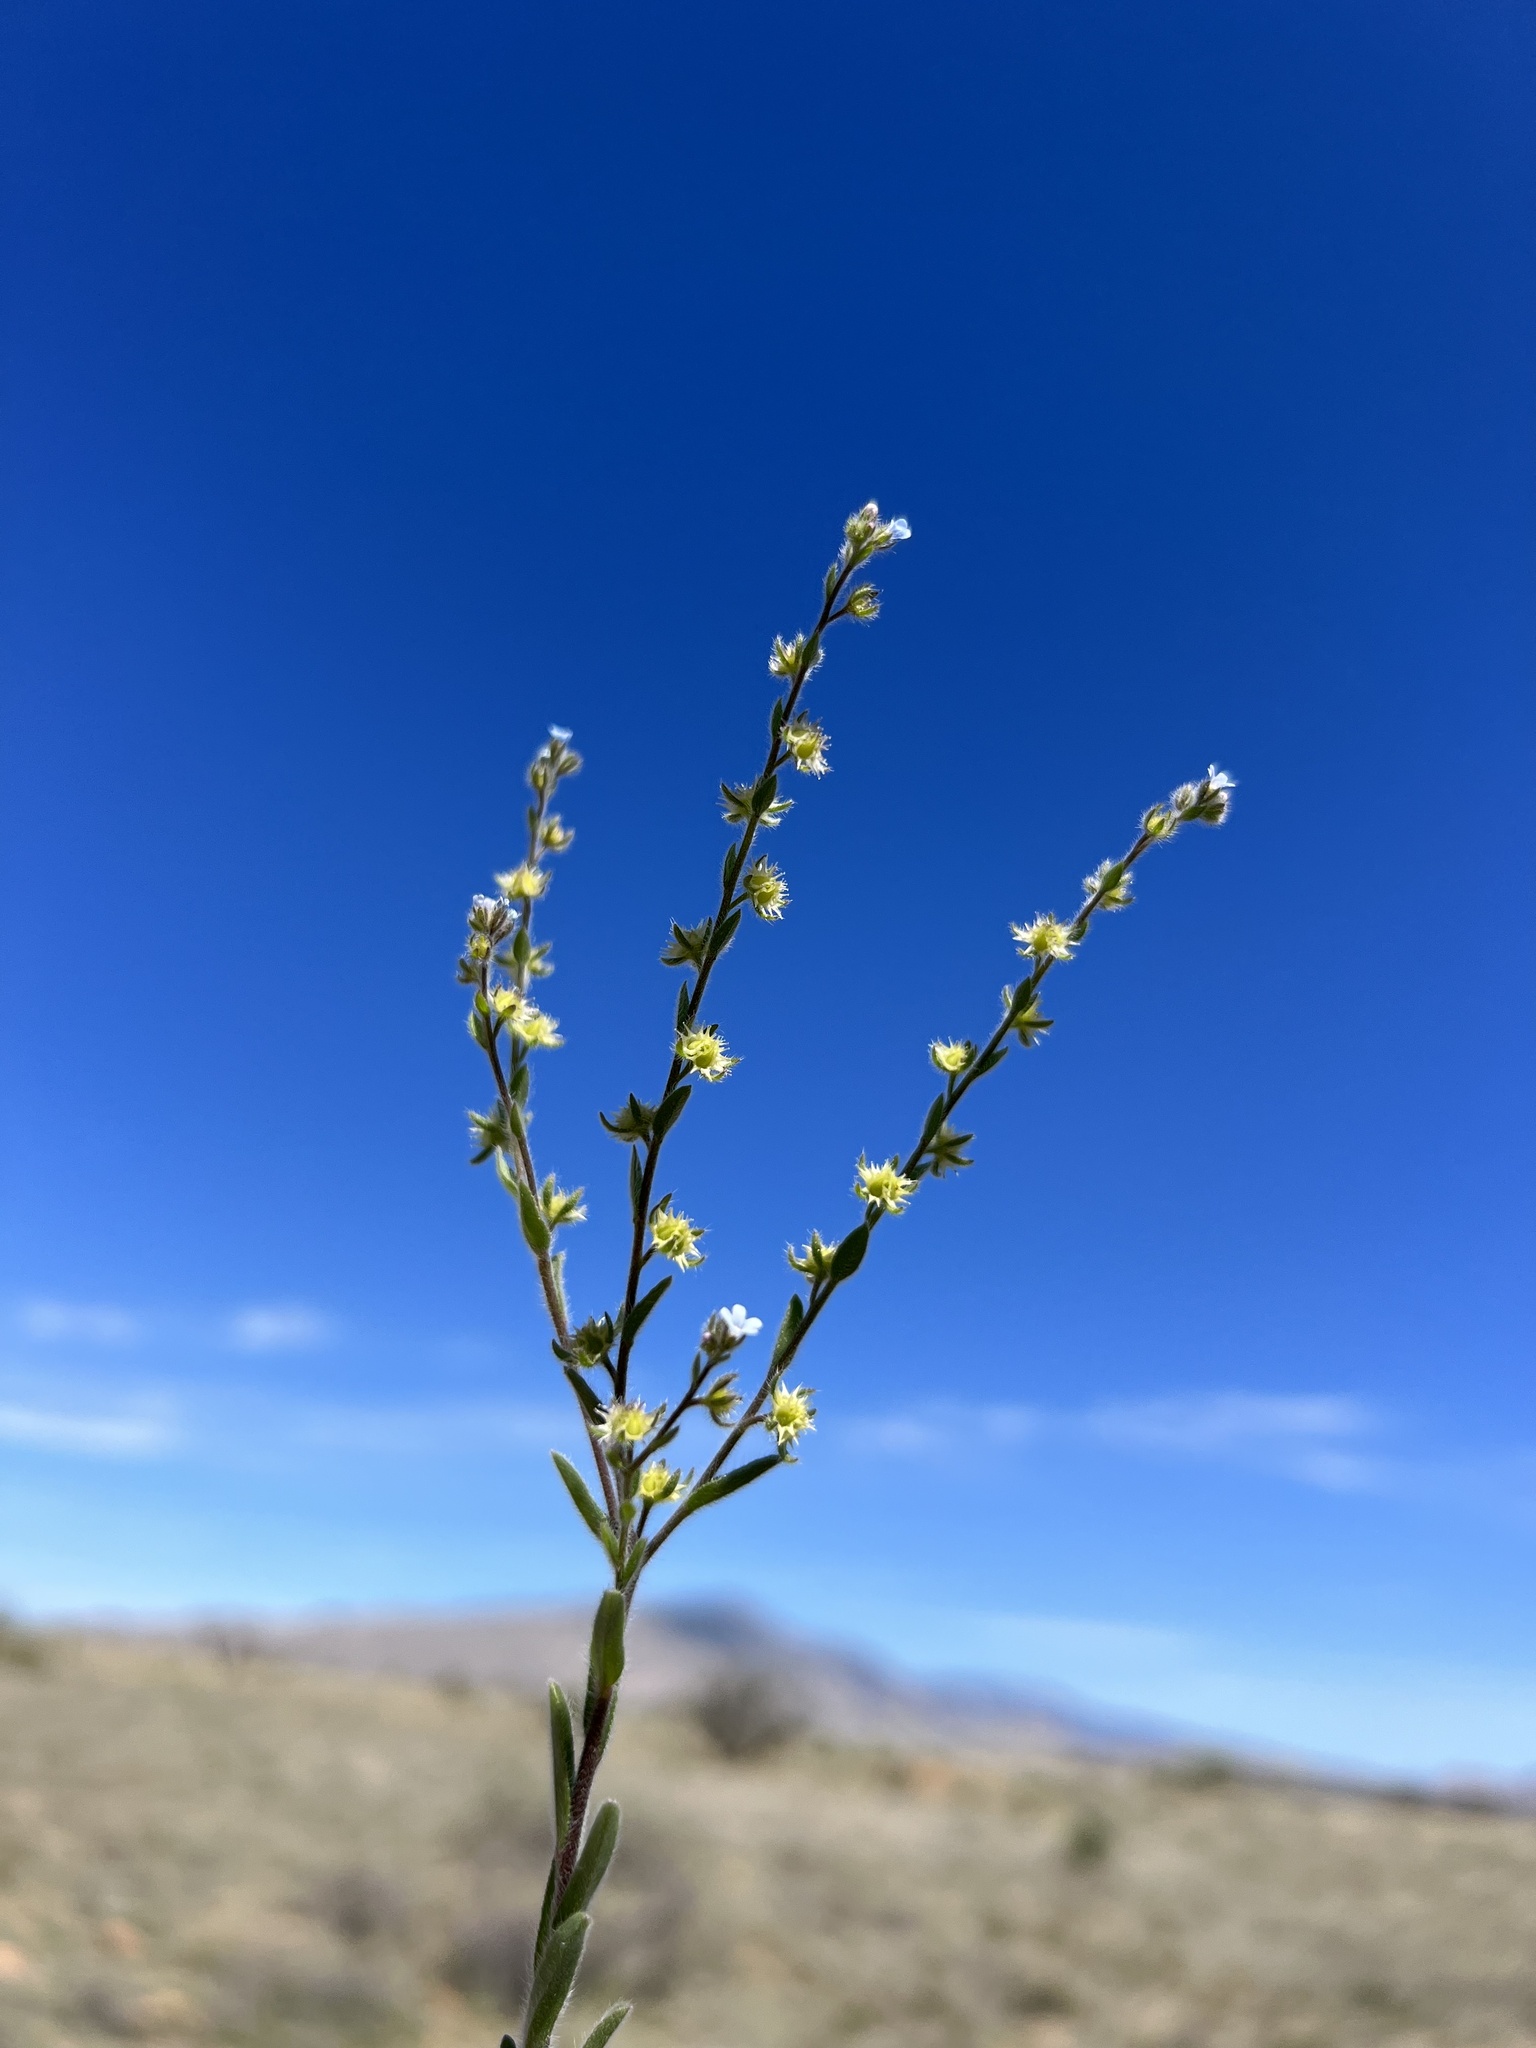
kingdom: Plantae
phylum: Tracheophyta
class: Magnoliopsida
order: Boraginales
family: Boraginaceae
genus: Lappula
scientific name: Lappula occidentalis
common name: Western stickseed
